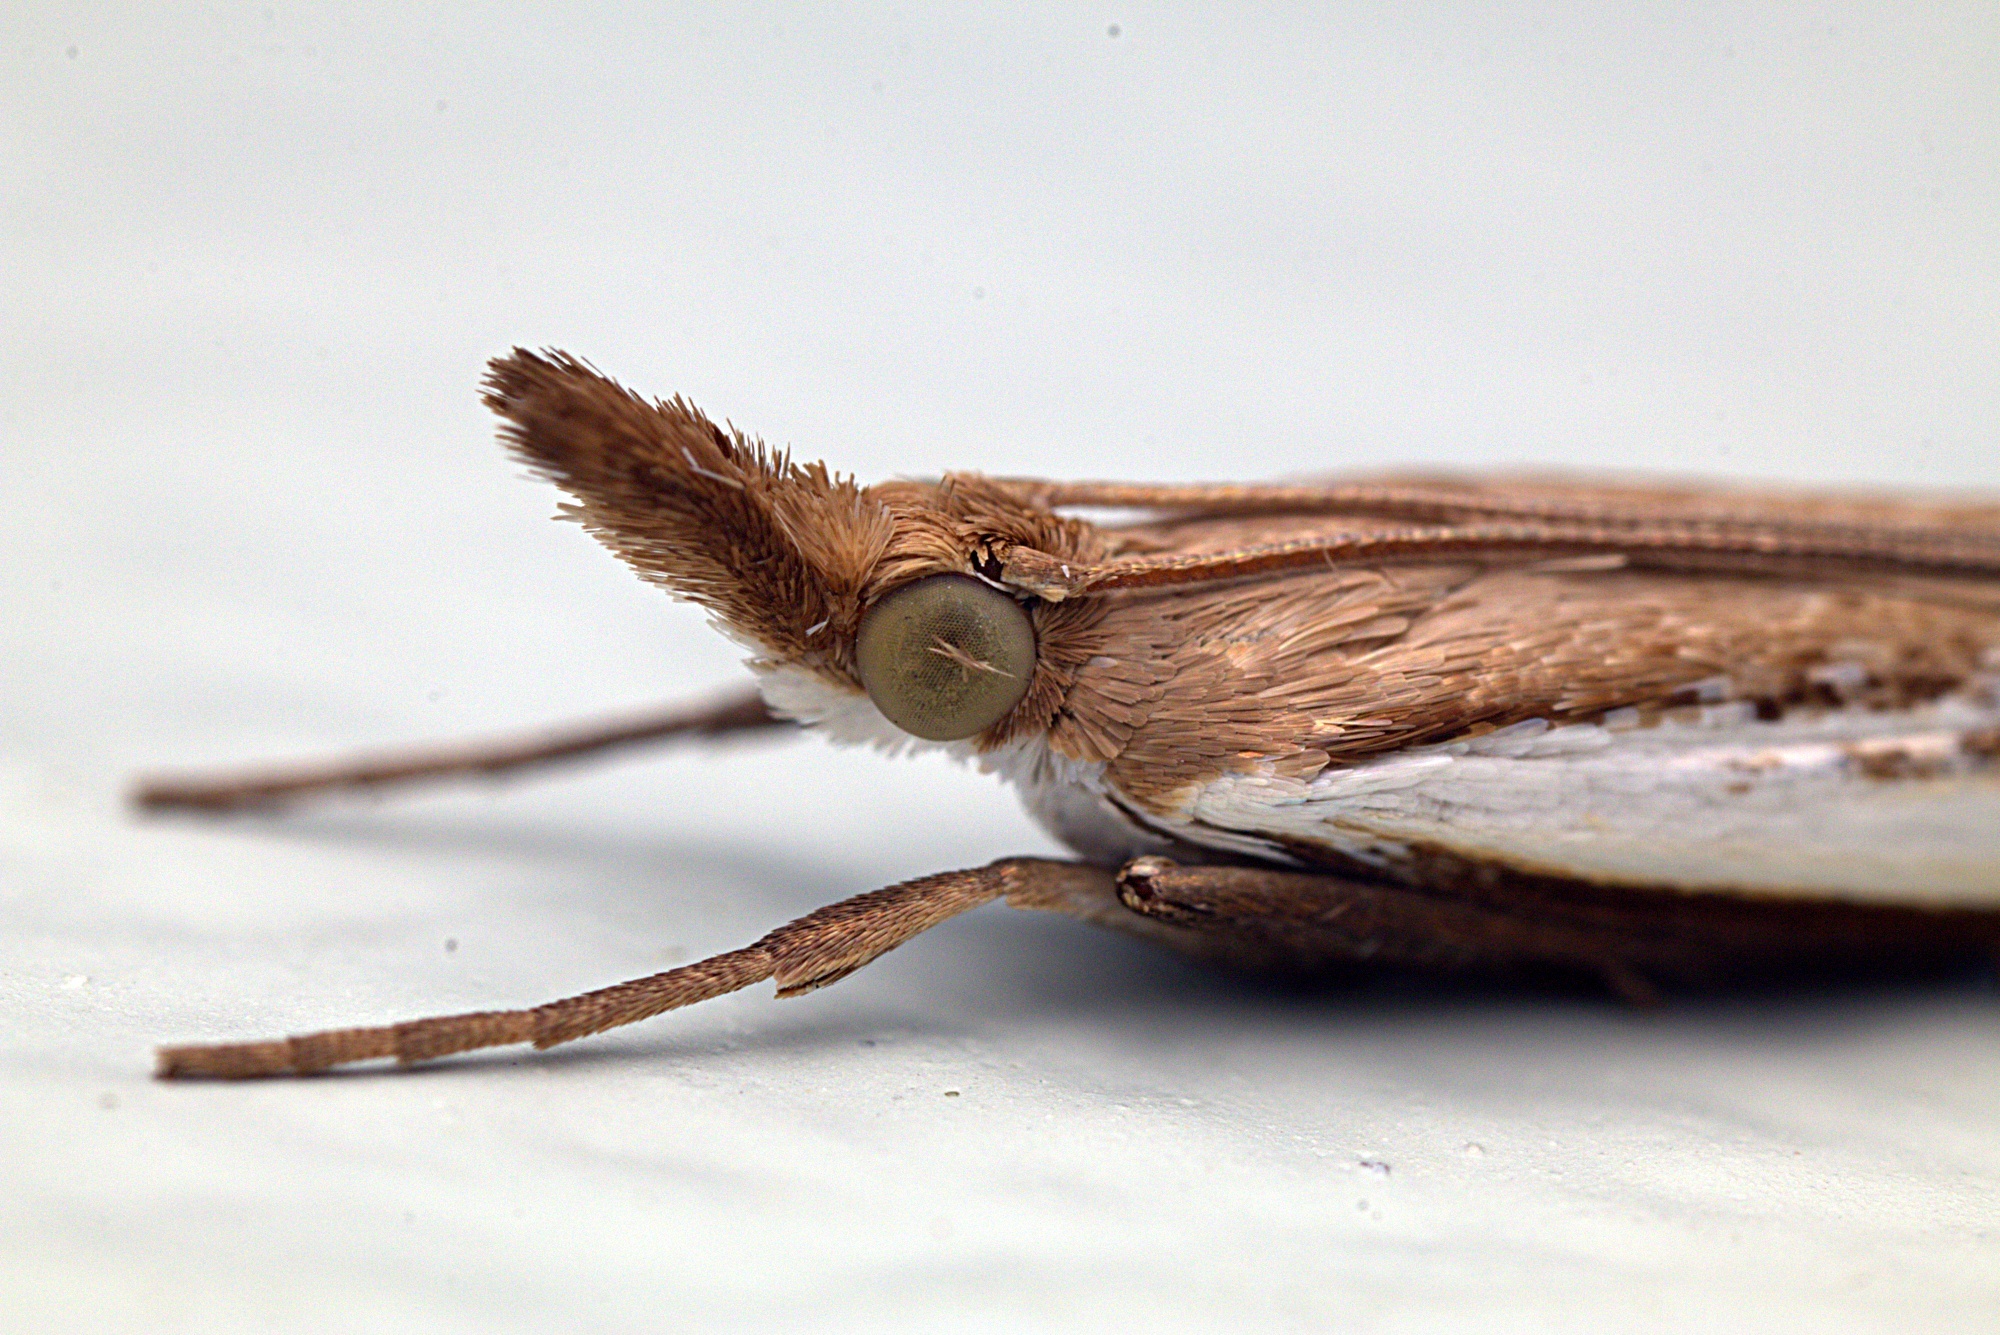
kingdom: Animalia
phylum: Arthropoda
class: Insecta
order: Lepidoptera
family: Crambidae
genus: Orocrambus
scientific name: Orocrambus flexuosellus
